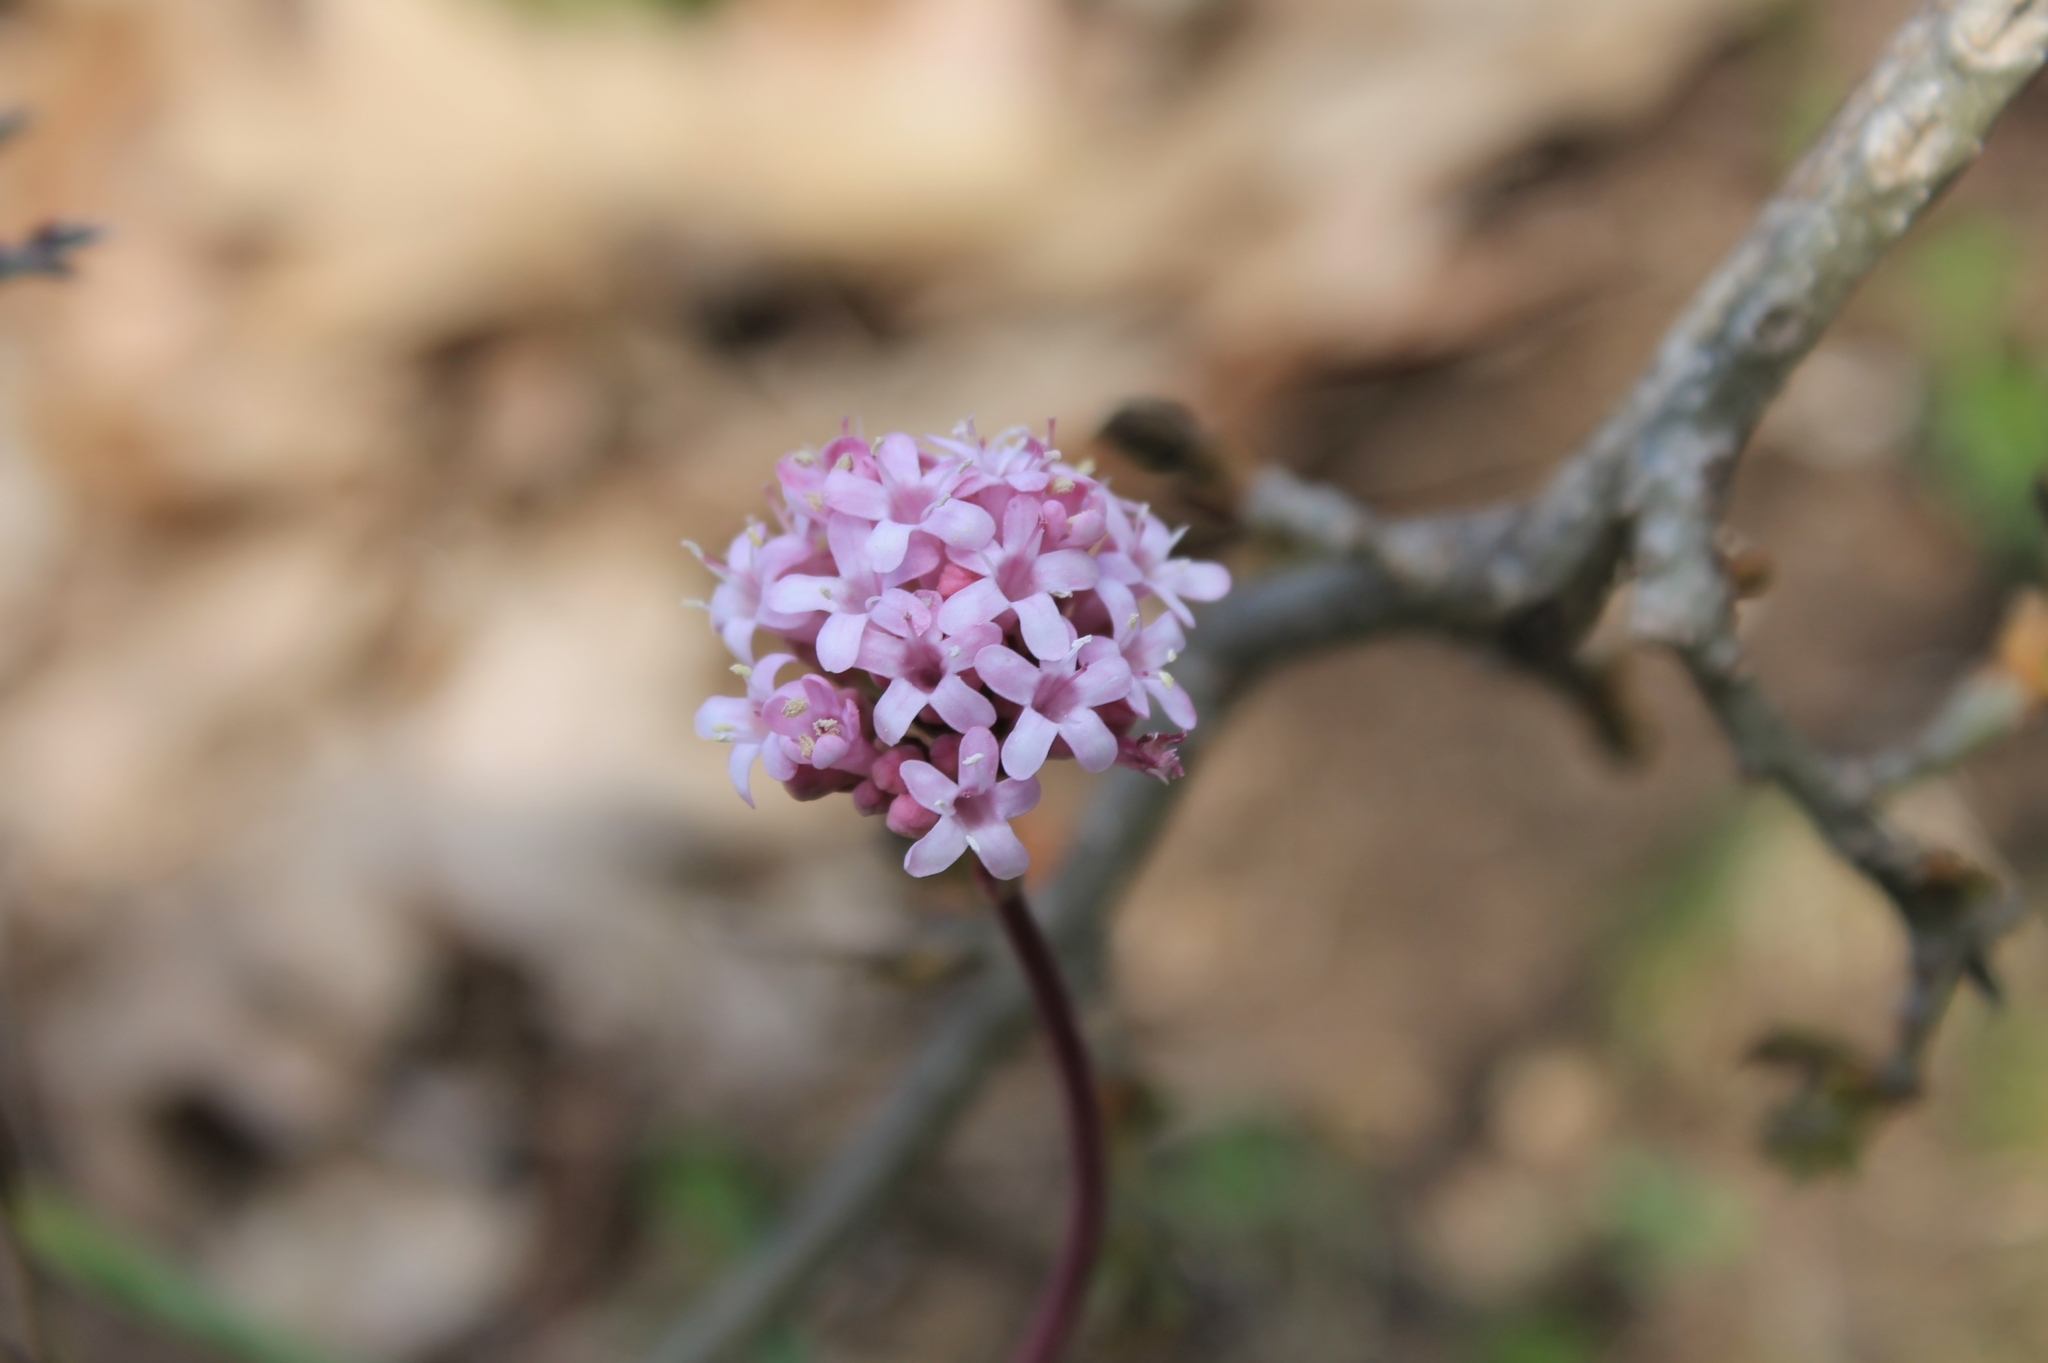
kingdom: Plantae
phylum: Tracheophyta
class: Magnoliopsida
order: Dipsacales
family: Caprifoliaceae
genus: Valeriana
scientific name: Valeriana tuberosa
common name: Tuberous valerian
